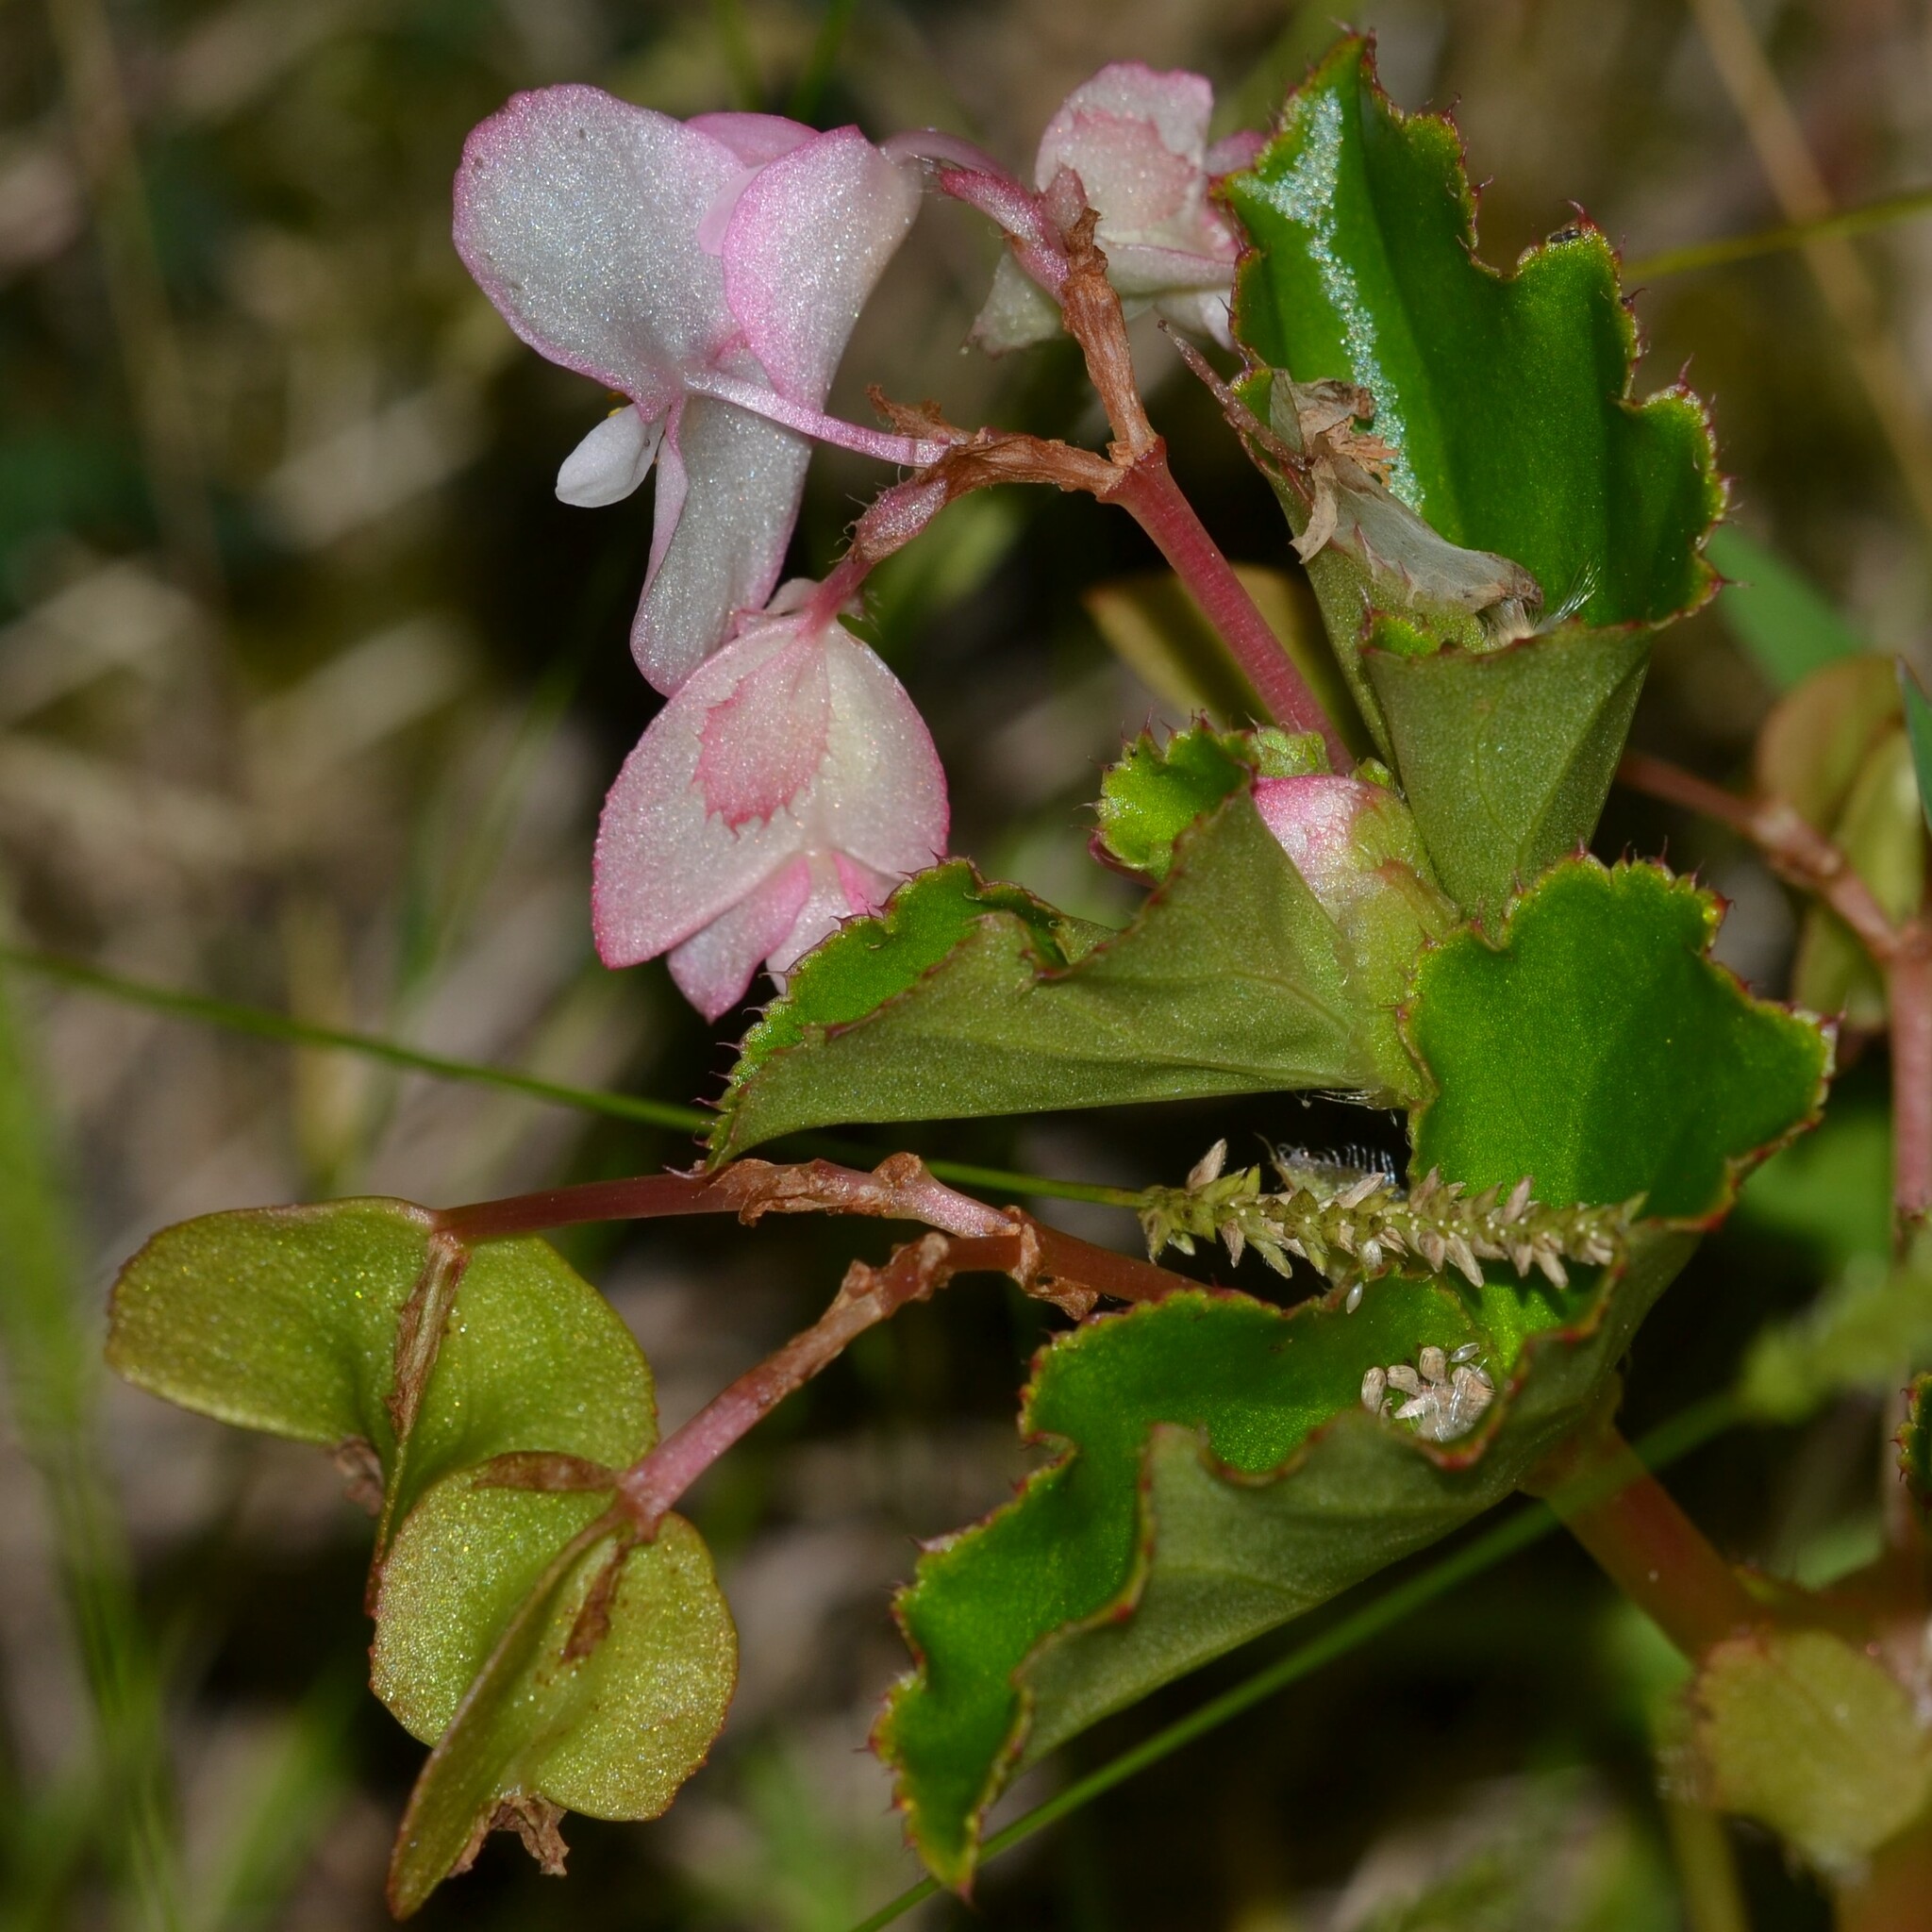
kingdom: Plantae
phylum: Tracheophyta
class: Magnoliopsida
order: Cucurbitales
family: Begoniaceae
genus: Begonia
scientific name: Begonia cucullata
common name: Clubbed begonia
